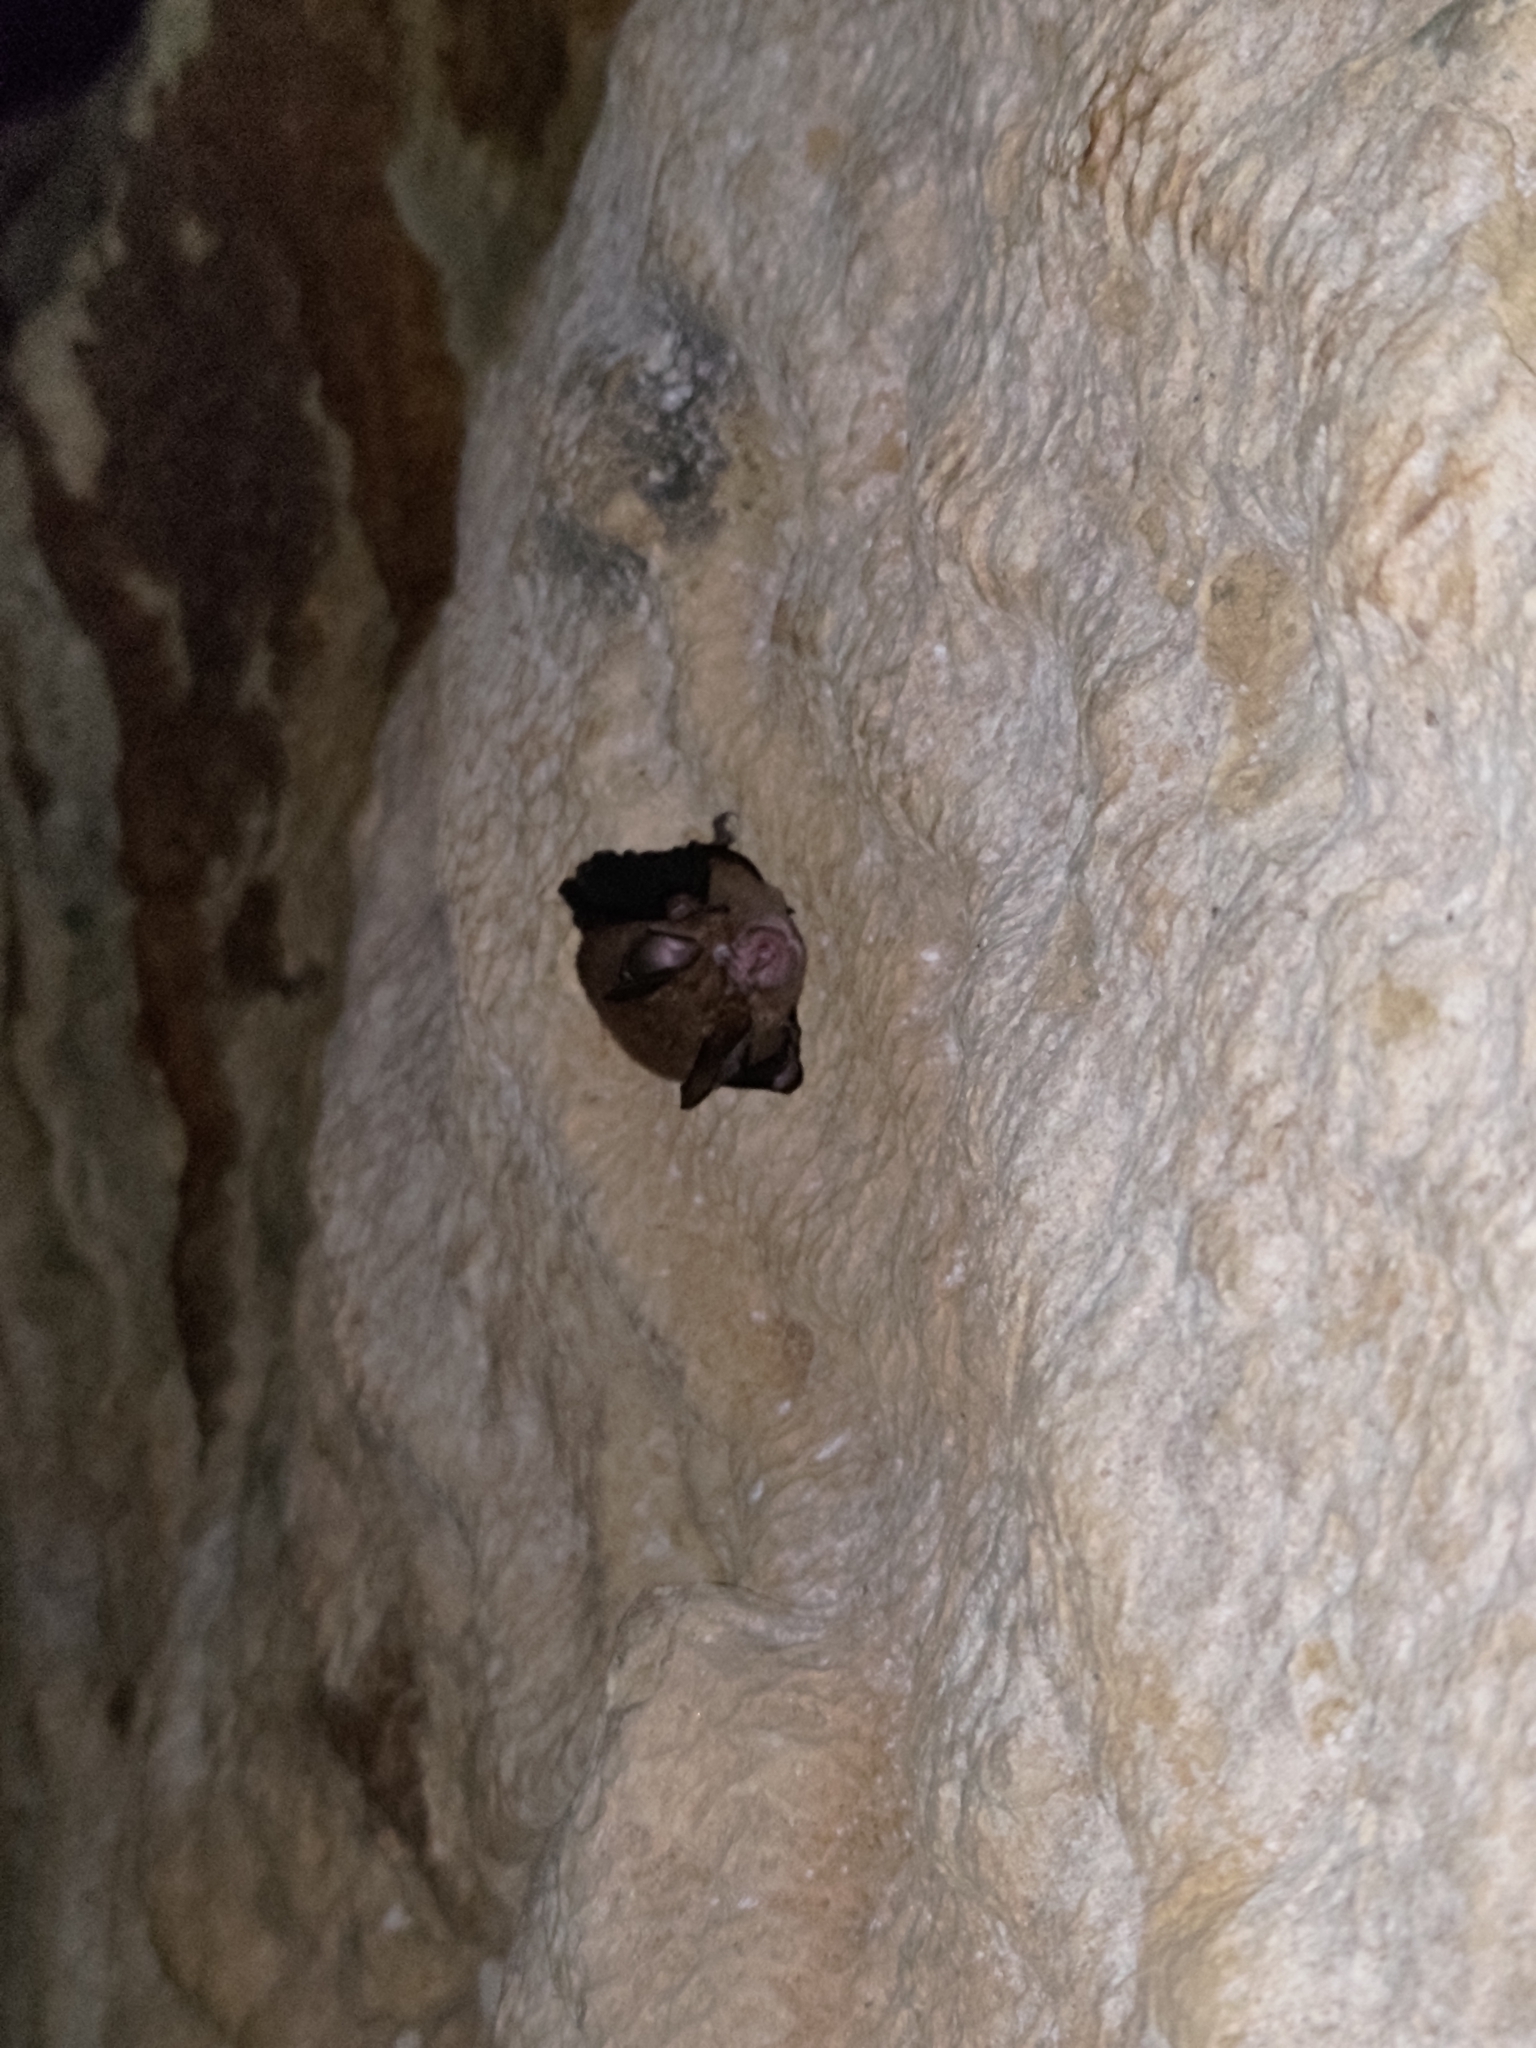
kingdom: Animalia
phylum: Chordata
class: Mammalia
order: Chiroptera
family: Rhinolophidae
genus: Rhinolophus
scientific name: Rhinolophus monoceros
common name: Formosan lesser horseshoe bat
